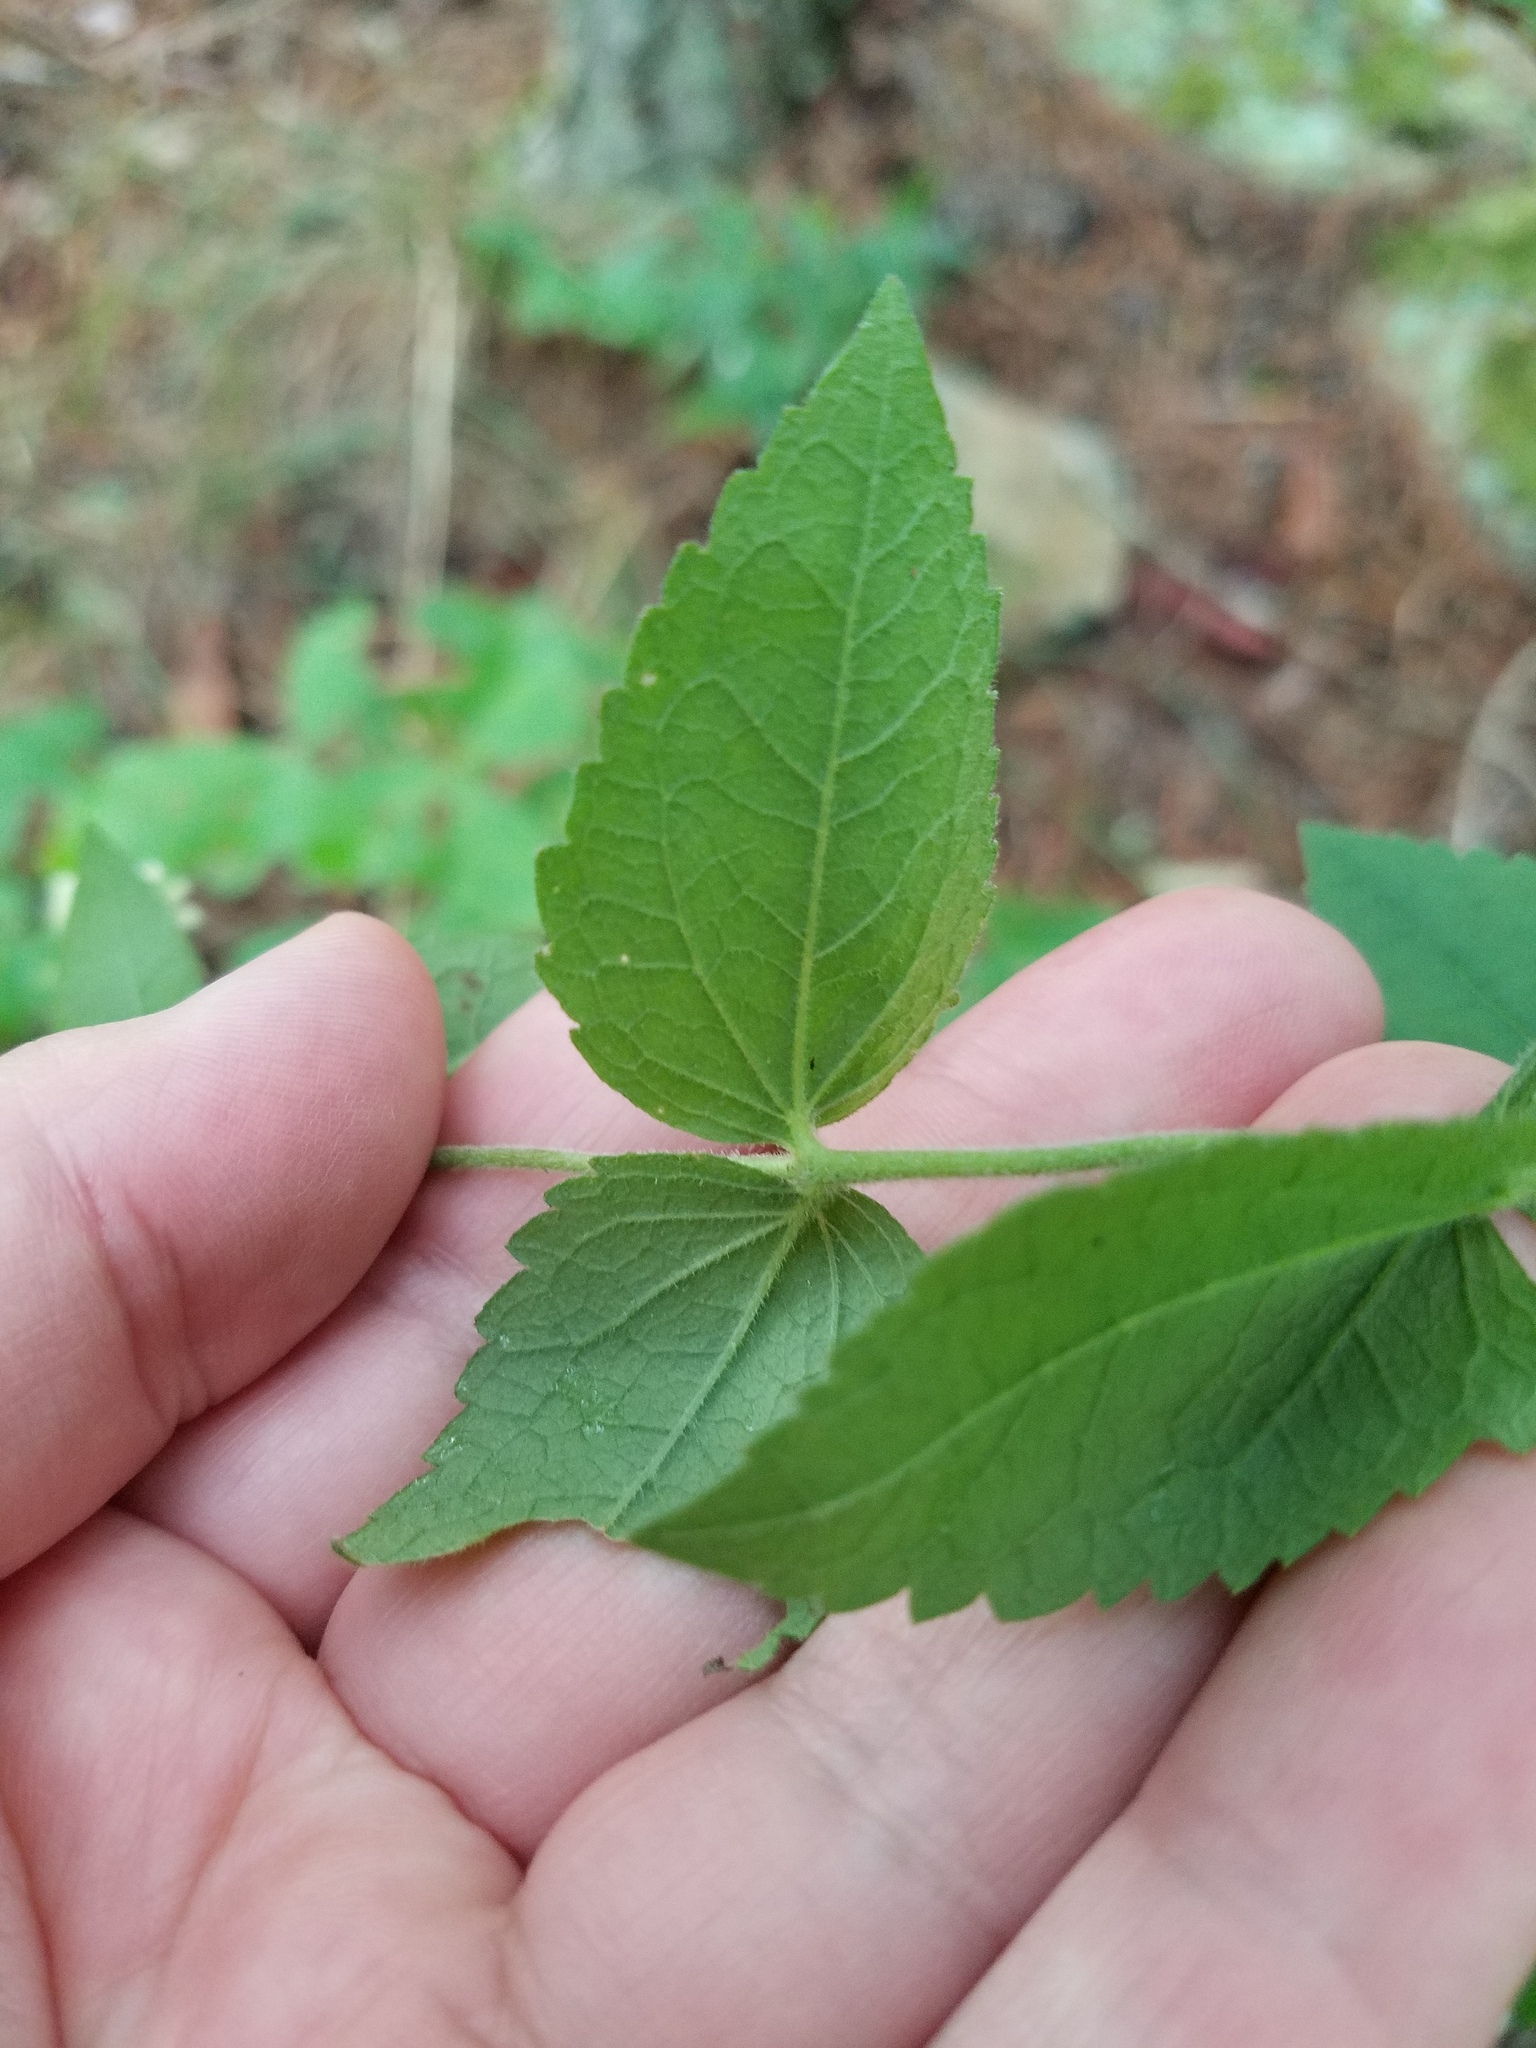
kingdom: Plantae
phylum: Tracheophyta
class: Magnoliopsida
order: Asterales
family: Asteraceae
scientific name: Asteraceae
